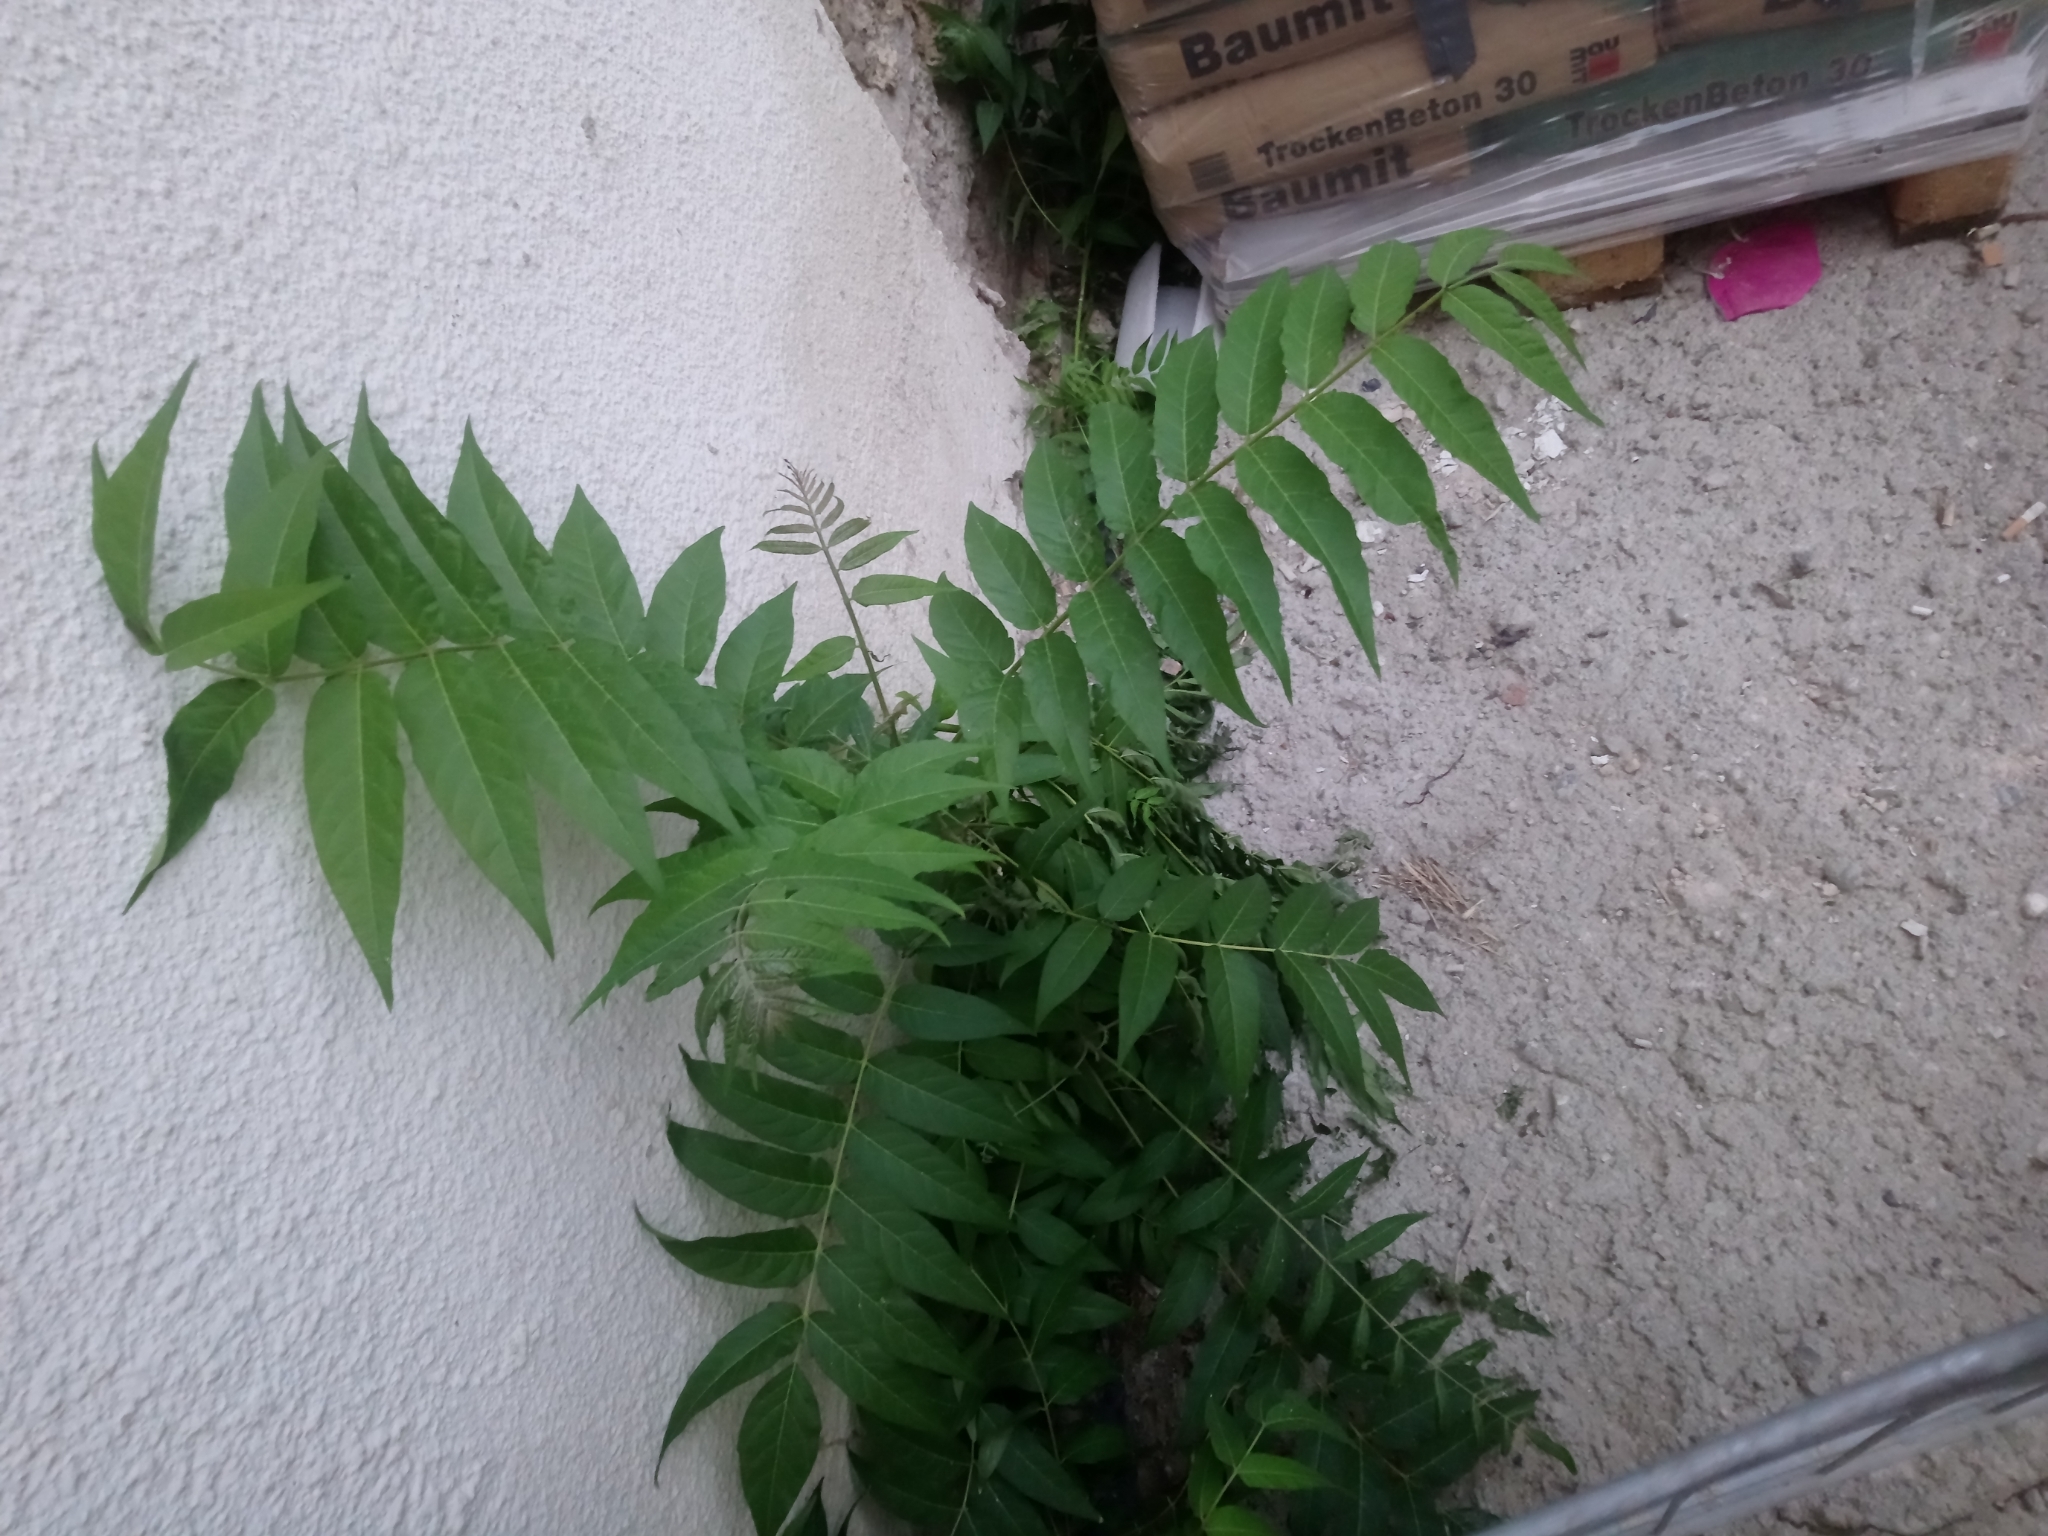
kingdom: Plantae
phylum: Tracheophyta
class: Magnoliopsida
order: Sapindales
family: Simaroubaceae
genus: Ailanthus
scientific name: Ailanthus altissima
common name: Tree-of-heaven
